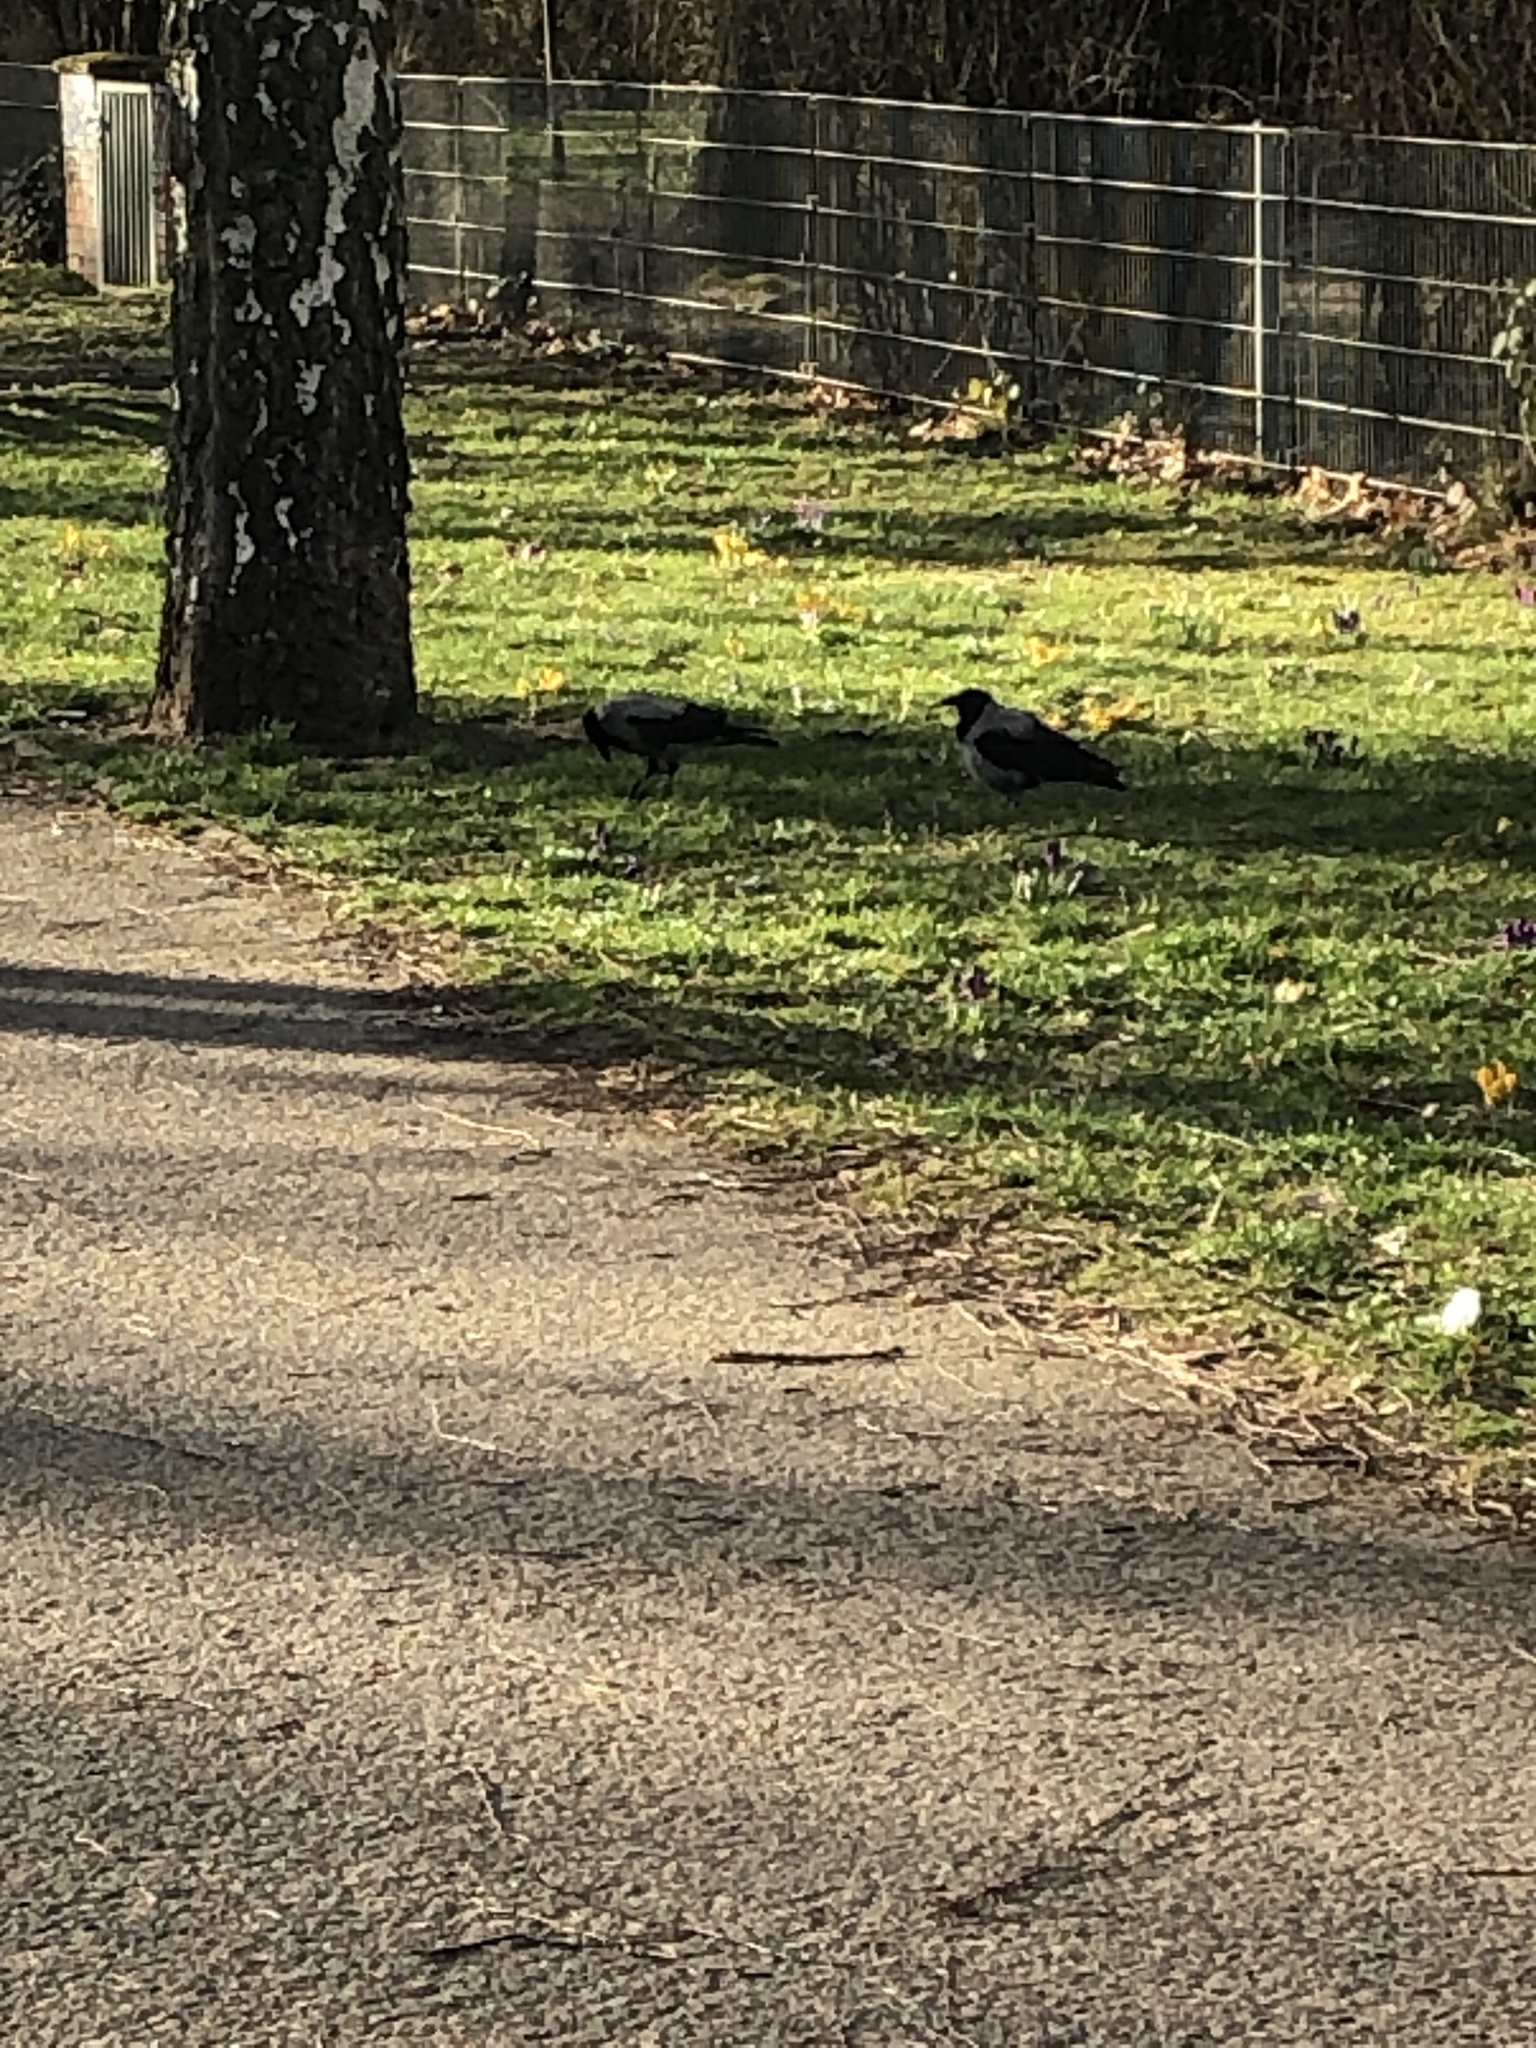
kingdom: Animalia
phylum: Chordata
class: Aves
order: Passeriformes
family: Corvidae
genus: Corvus
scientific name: Corvus cornix
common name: Hooded crow
